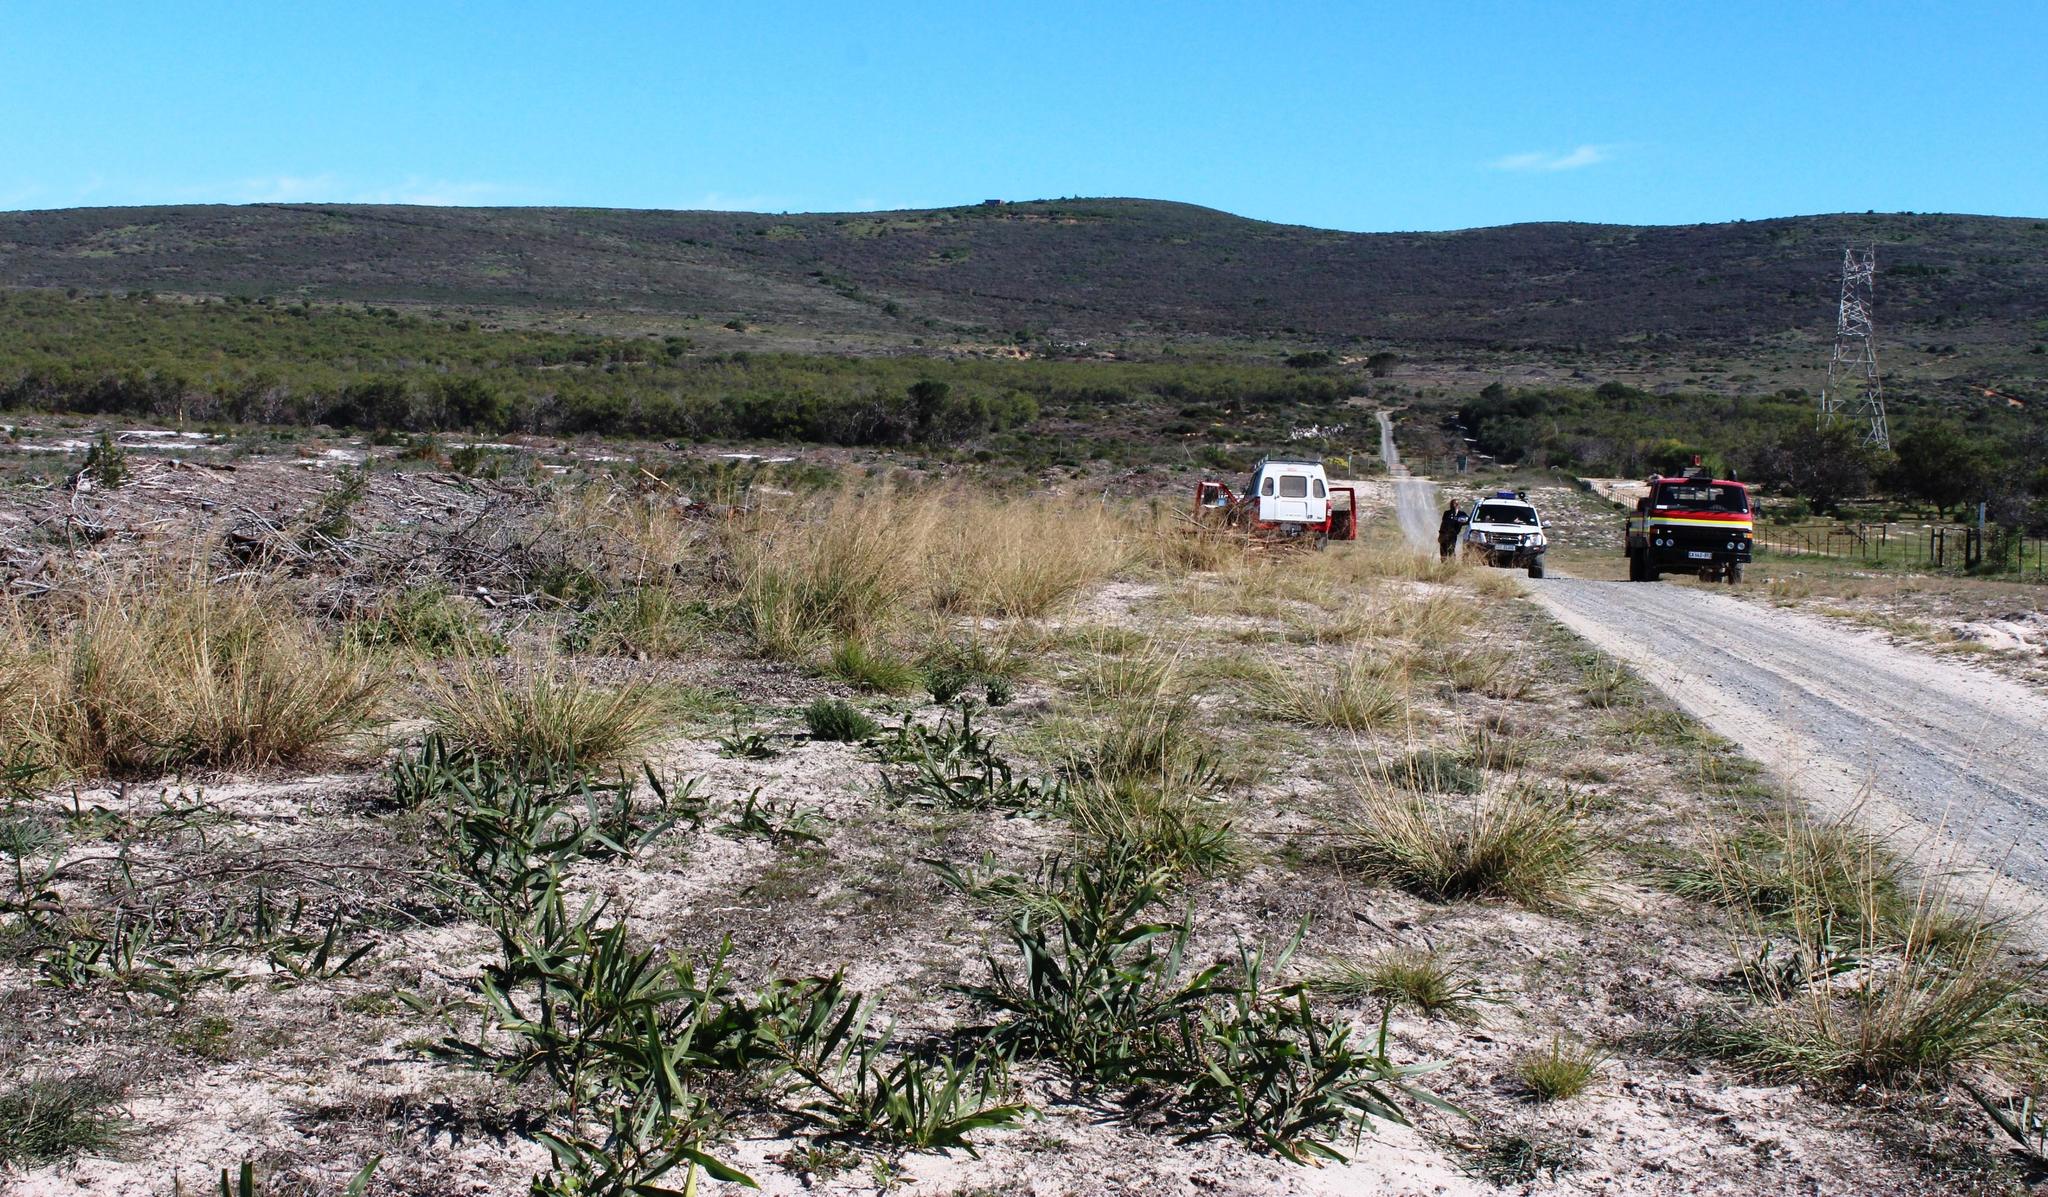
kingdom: Plantae
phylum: Tracheophyta
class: Magnoliopsida
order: Fabales
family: Fabaceae
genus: Acacia
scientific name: Acacia saligna
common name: Orange wattle
